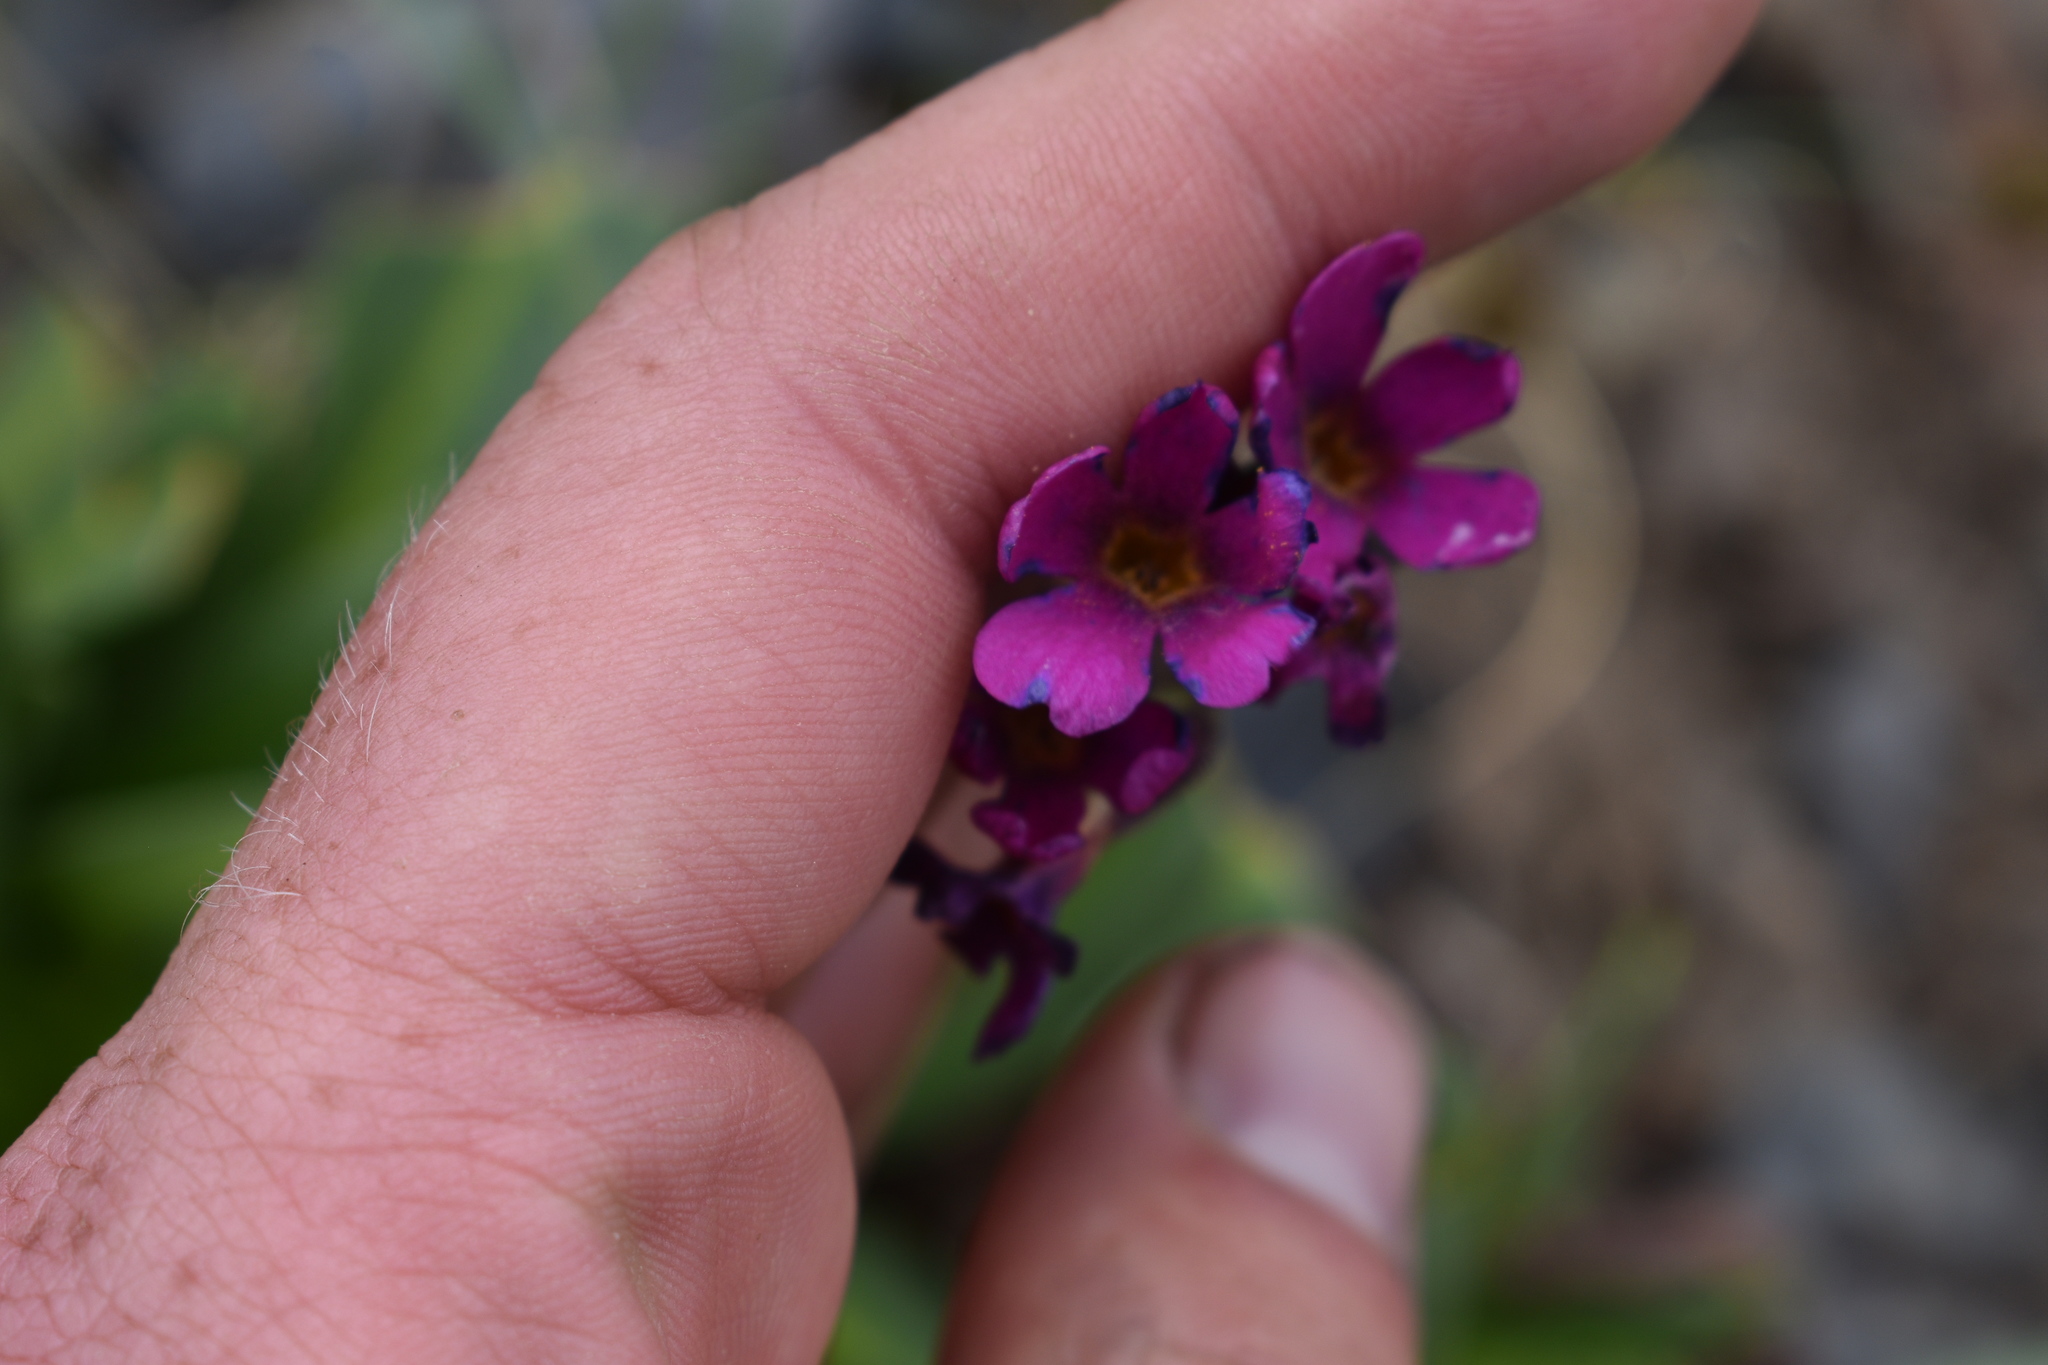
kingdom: Plantae
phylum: Tracheophyta
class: Magnoliopsida
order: Ericales
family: Primulaceae
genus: Primula
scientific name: Primula parryi
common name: Parry's primrose
